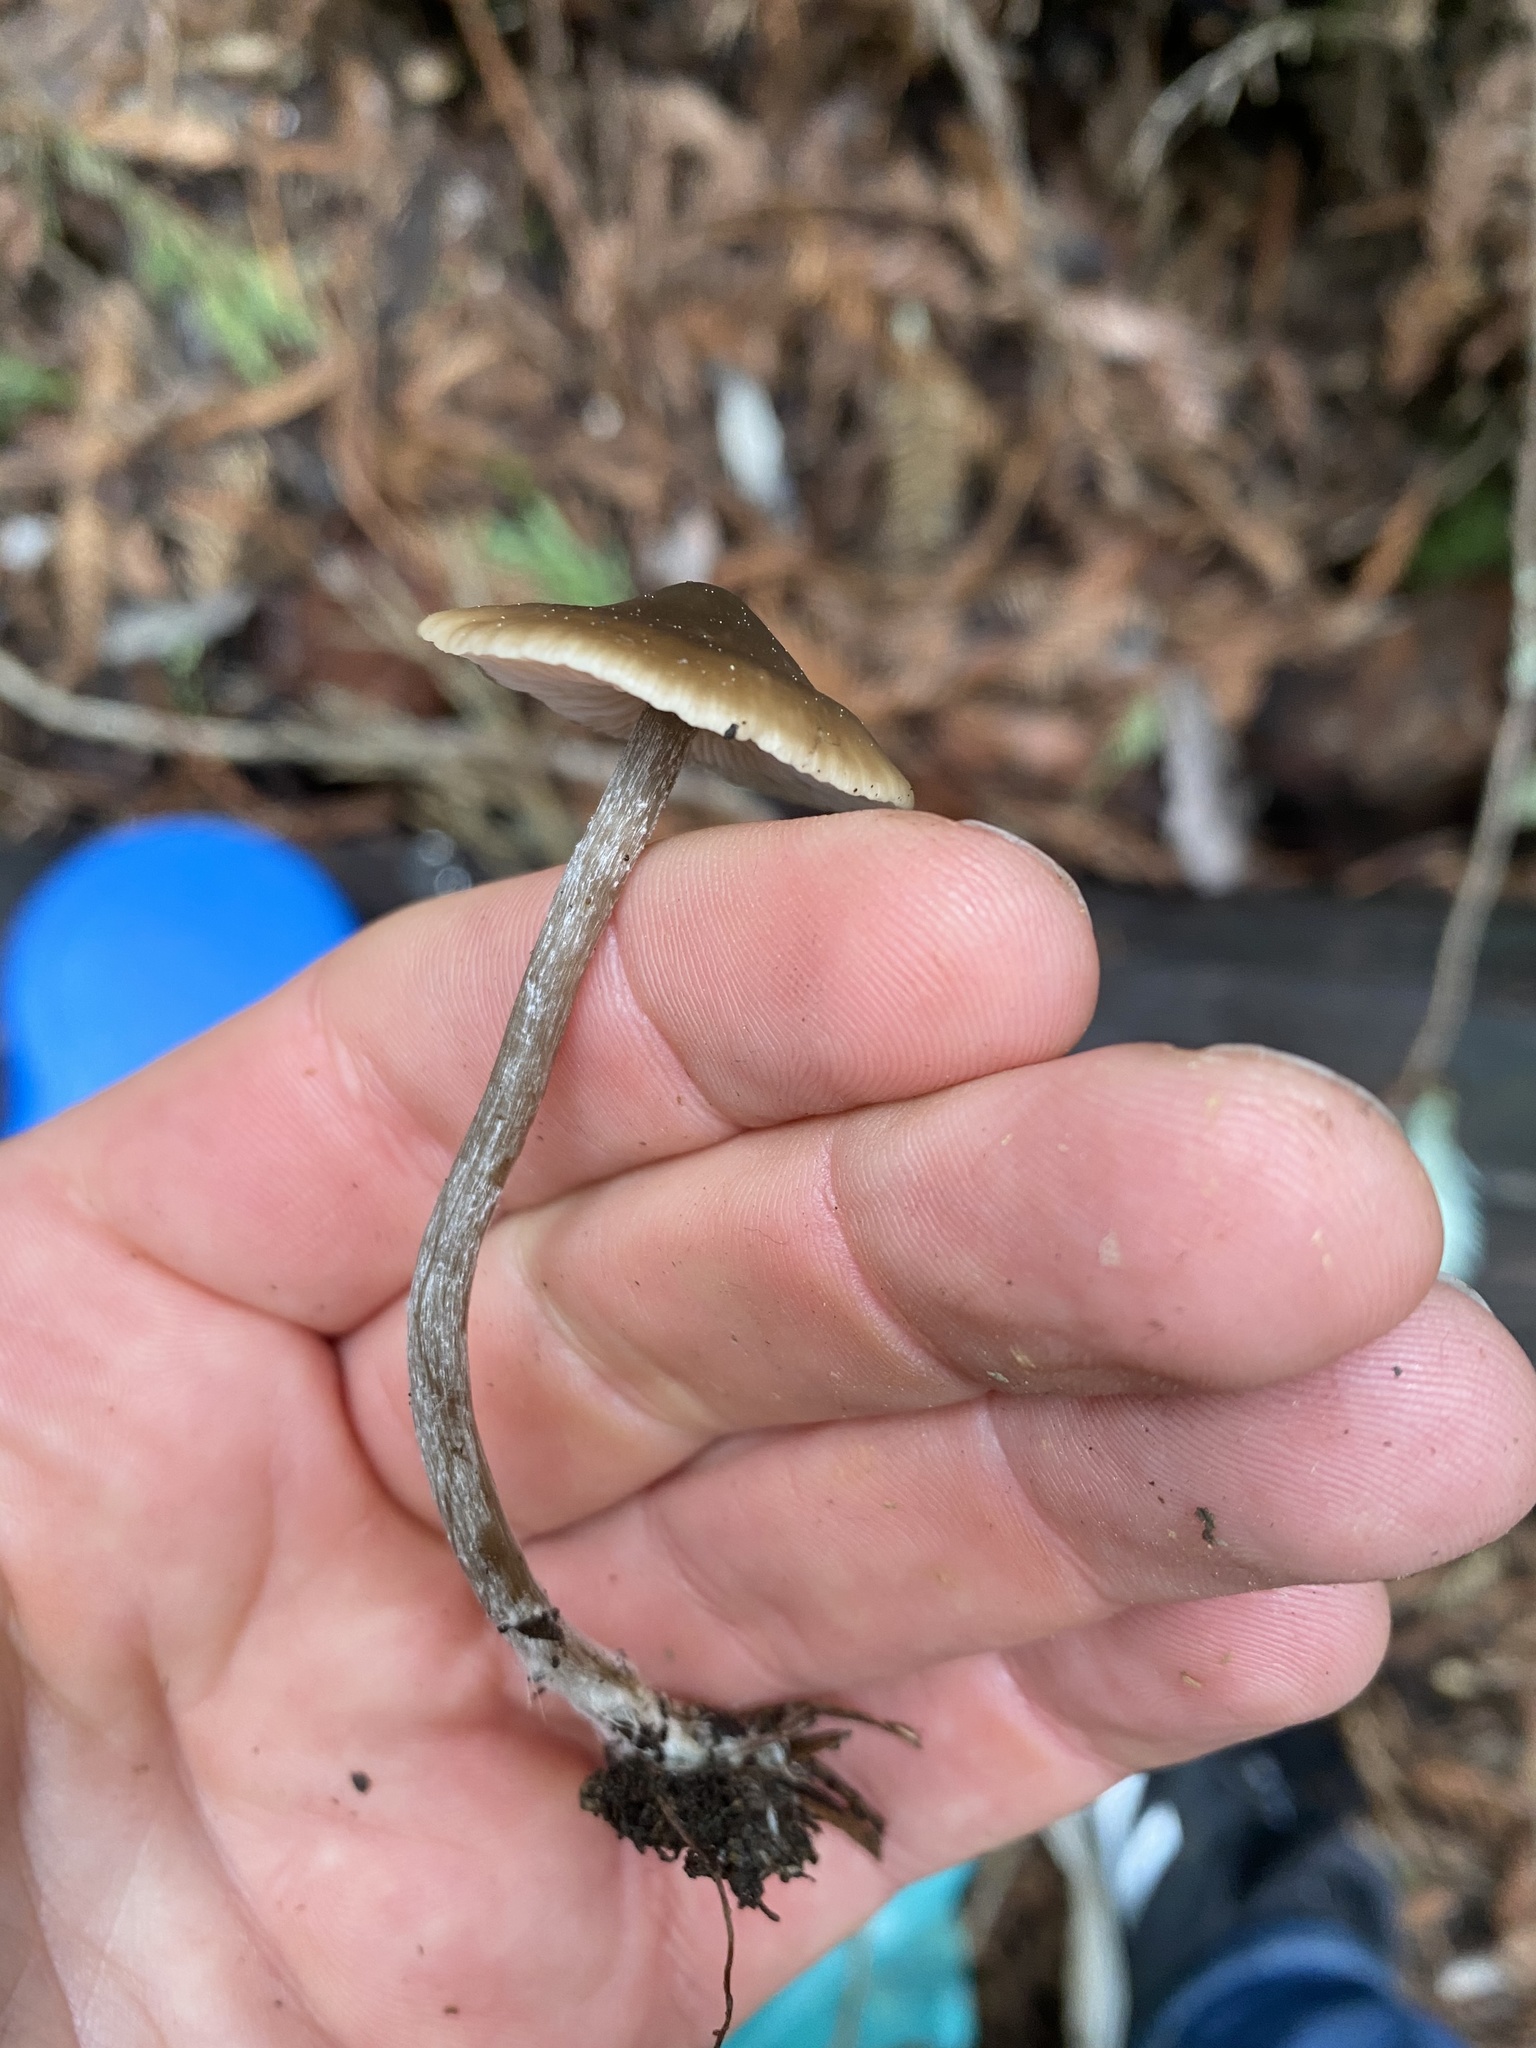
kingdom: Fungi
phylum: Basidiomycota
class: Agaricomycetes
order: Agaricales
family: Lyophyllaceae
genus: Myochromella
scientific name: Myochromella boudieri
